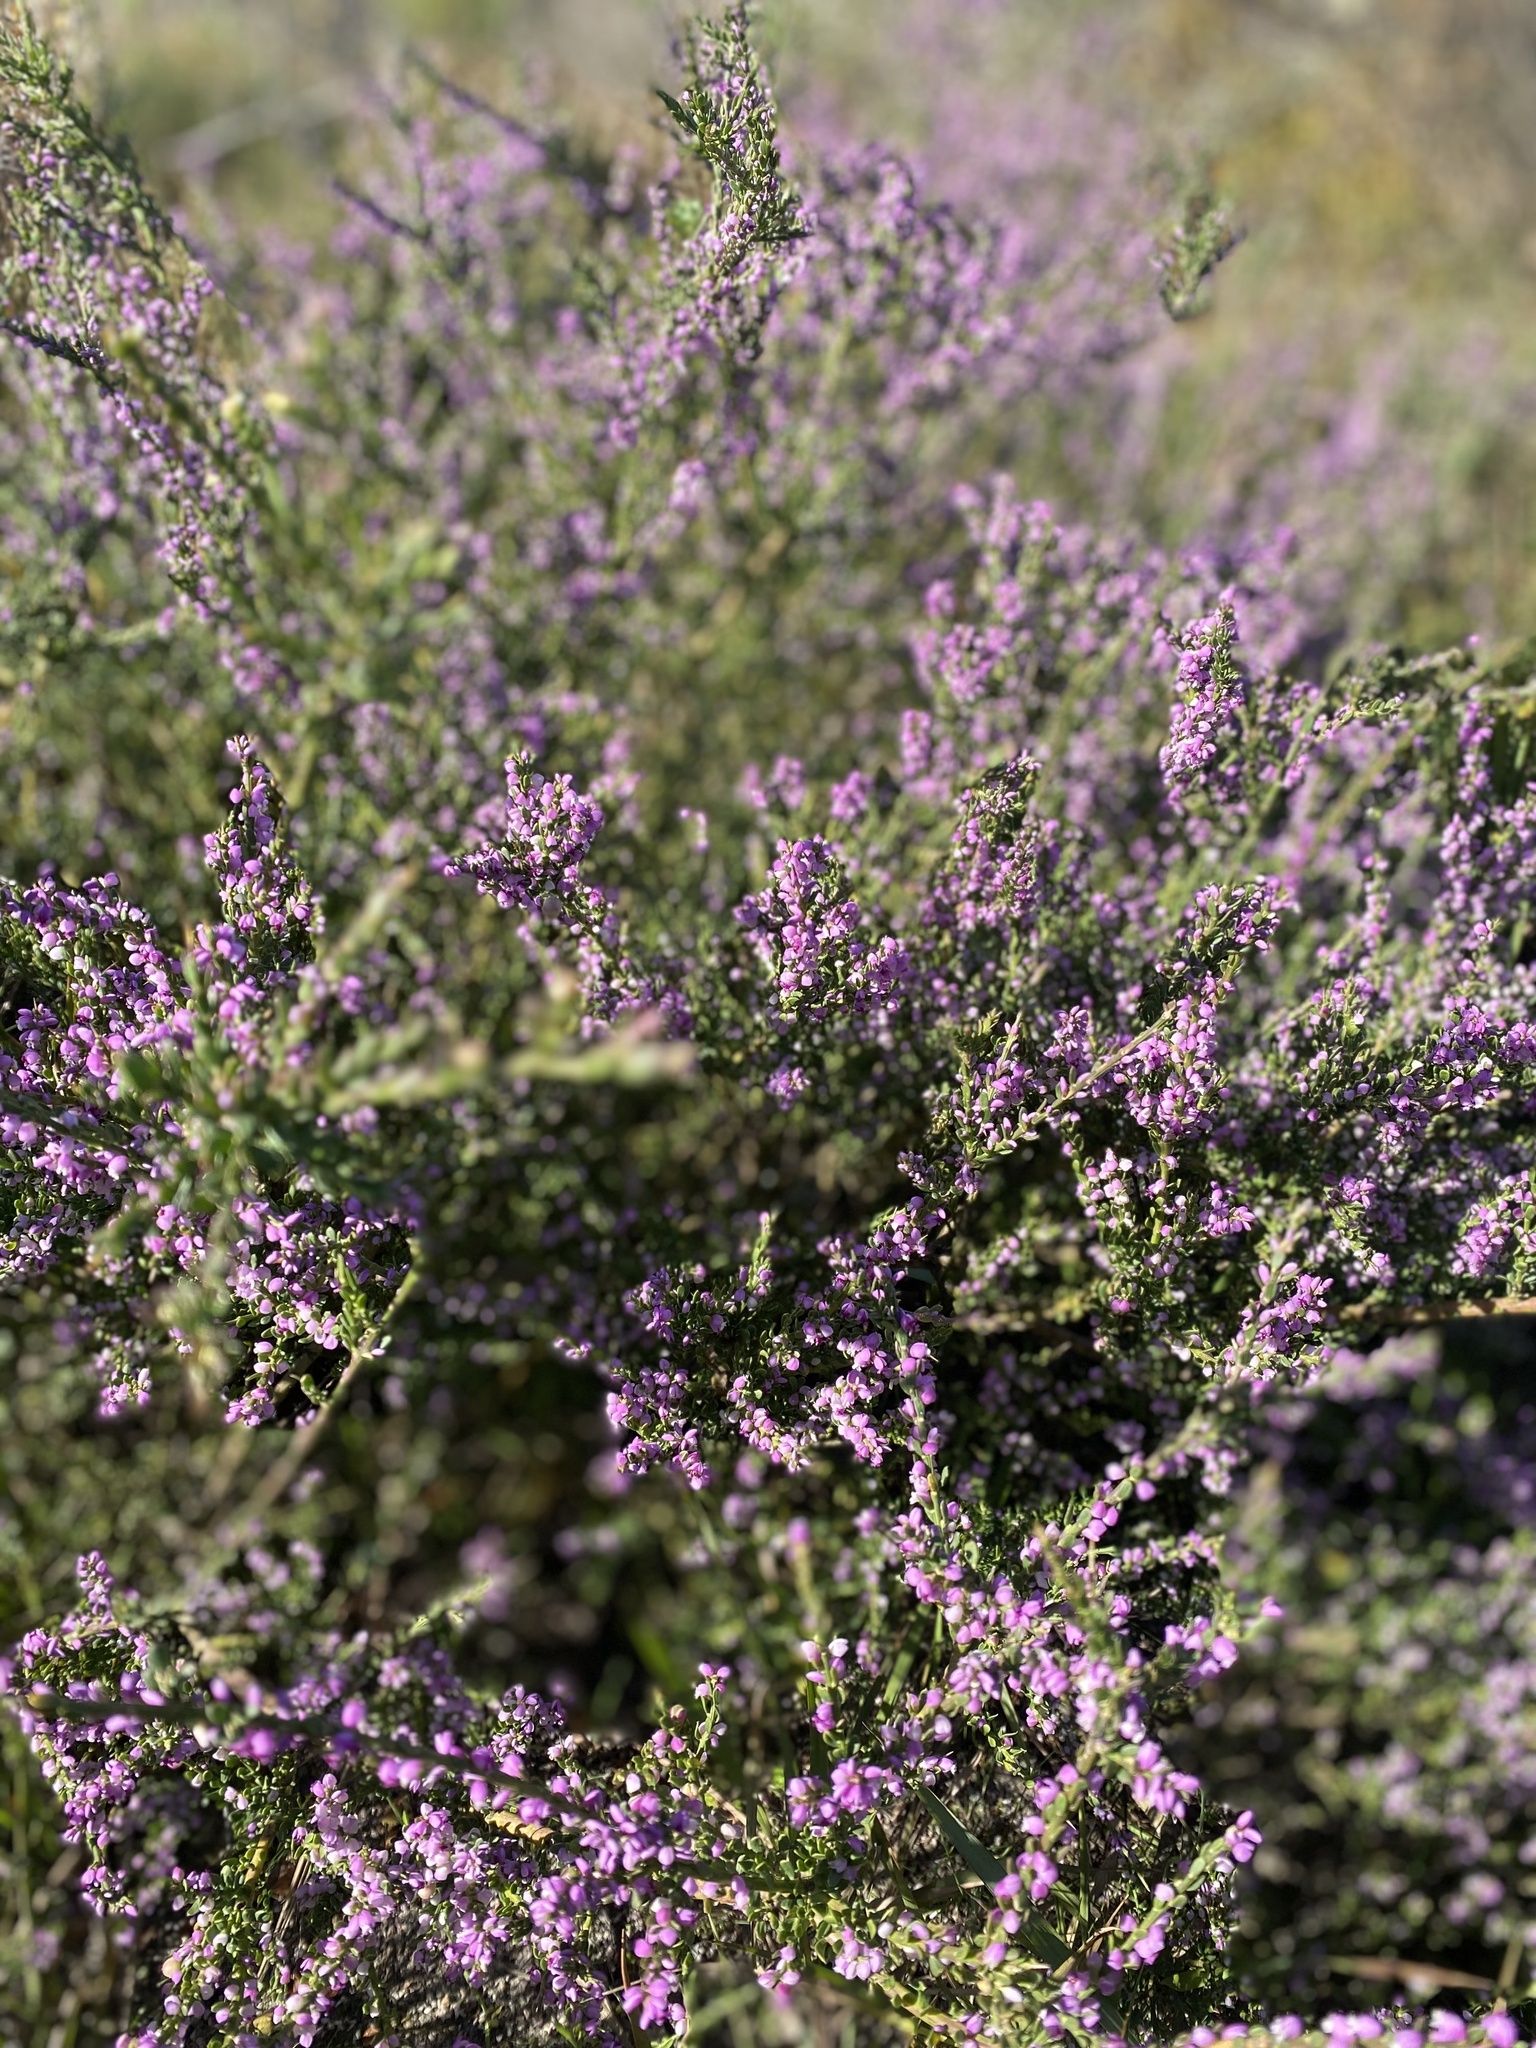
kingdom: Plantae
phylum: Tracheophyta
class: Magnoliopsida
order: Fabales
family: Polygalaceae
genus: Muraltia
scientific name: Muraltia spinosa
